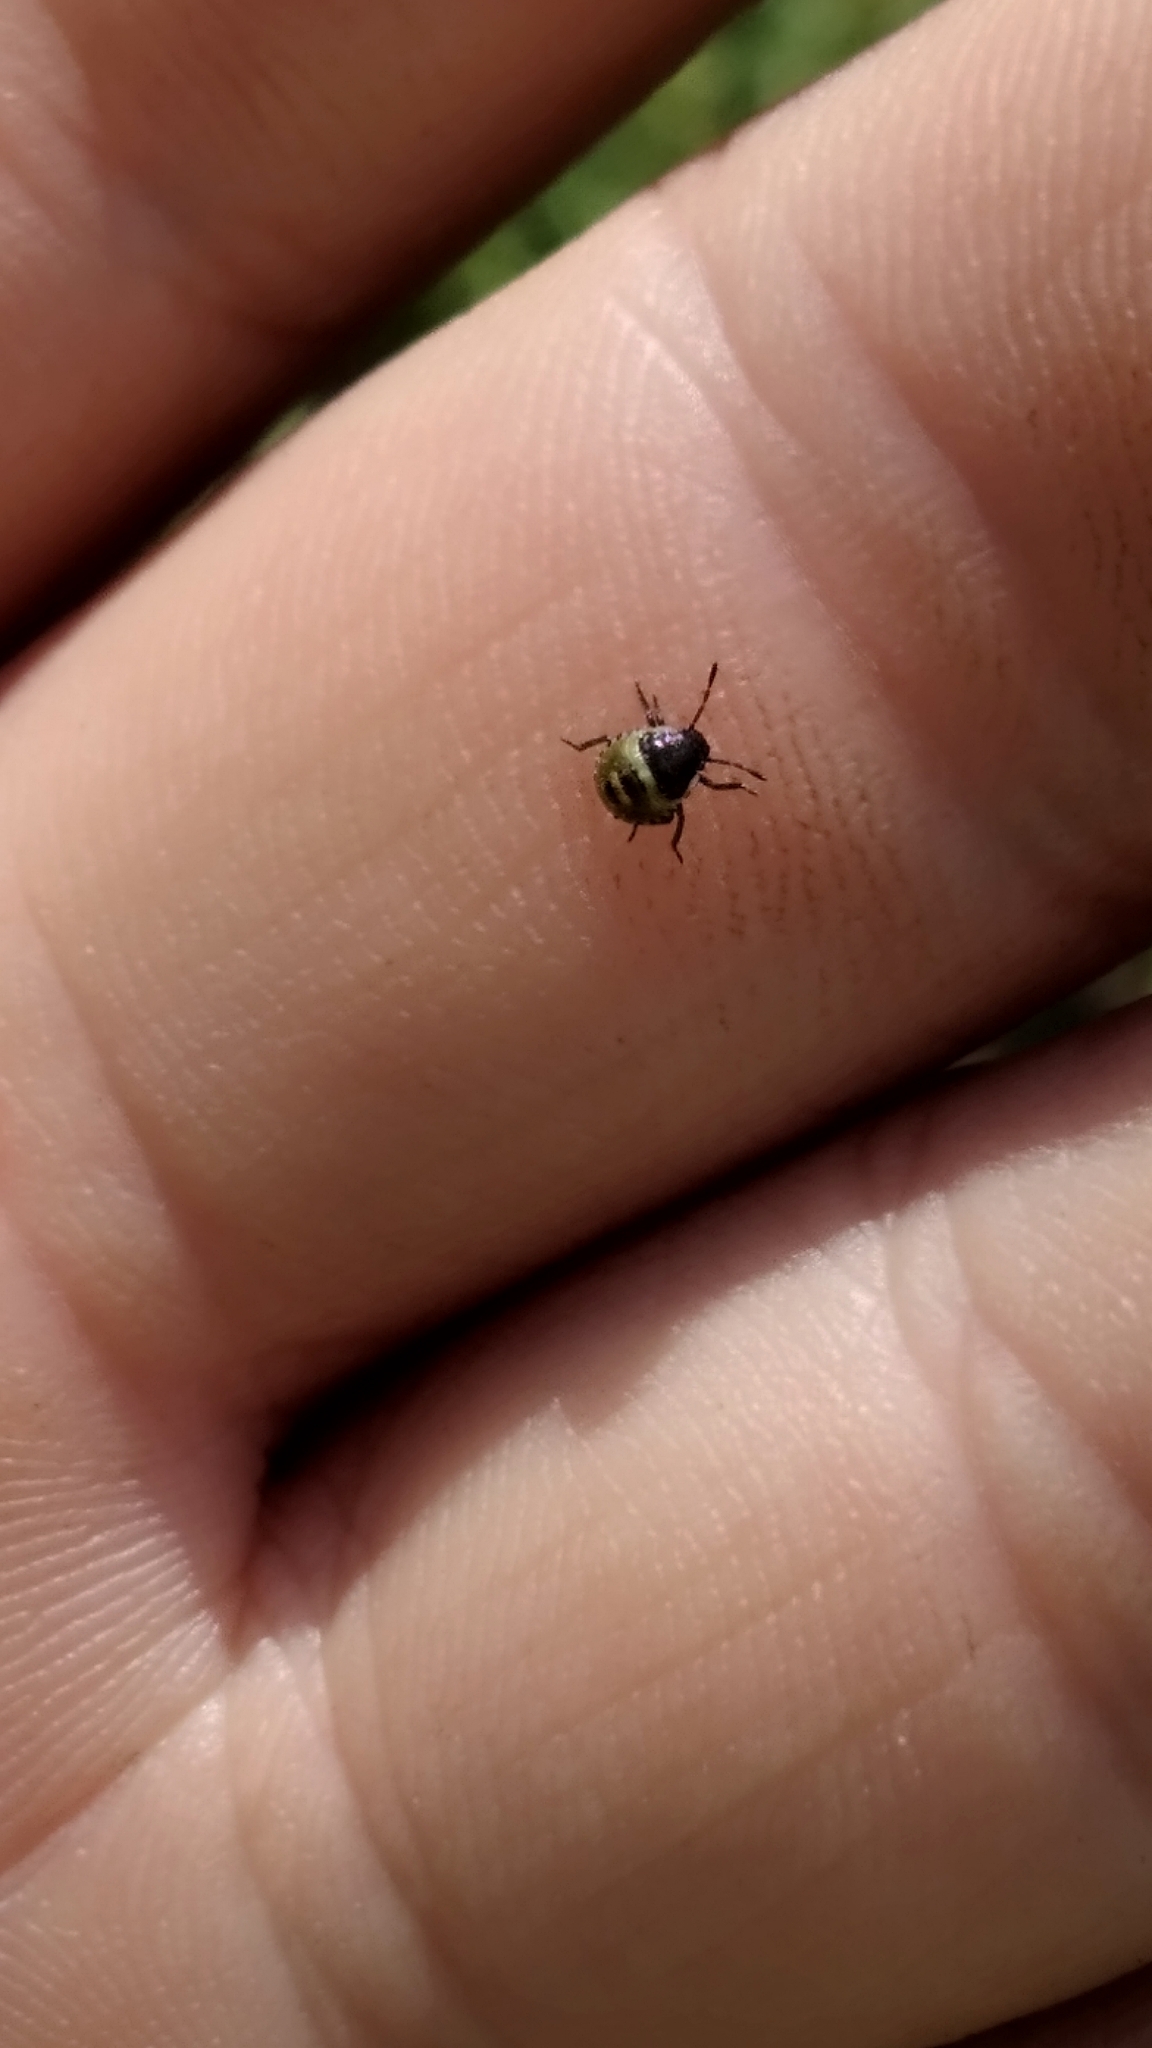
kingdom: Animalia
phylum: Arthropoda
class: Insecta
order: Hemiptera
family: Pentatomidae
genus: Palomena
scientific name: Palomena prasina
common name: Green shieldbug
